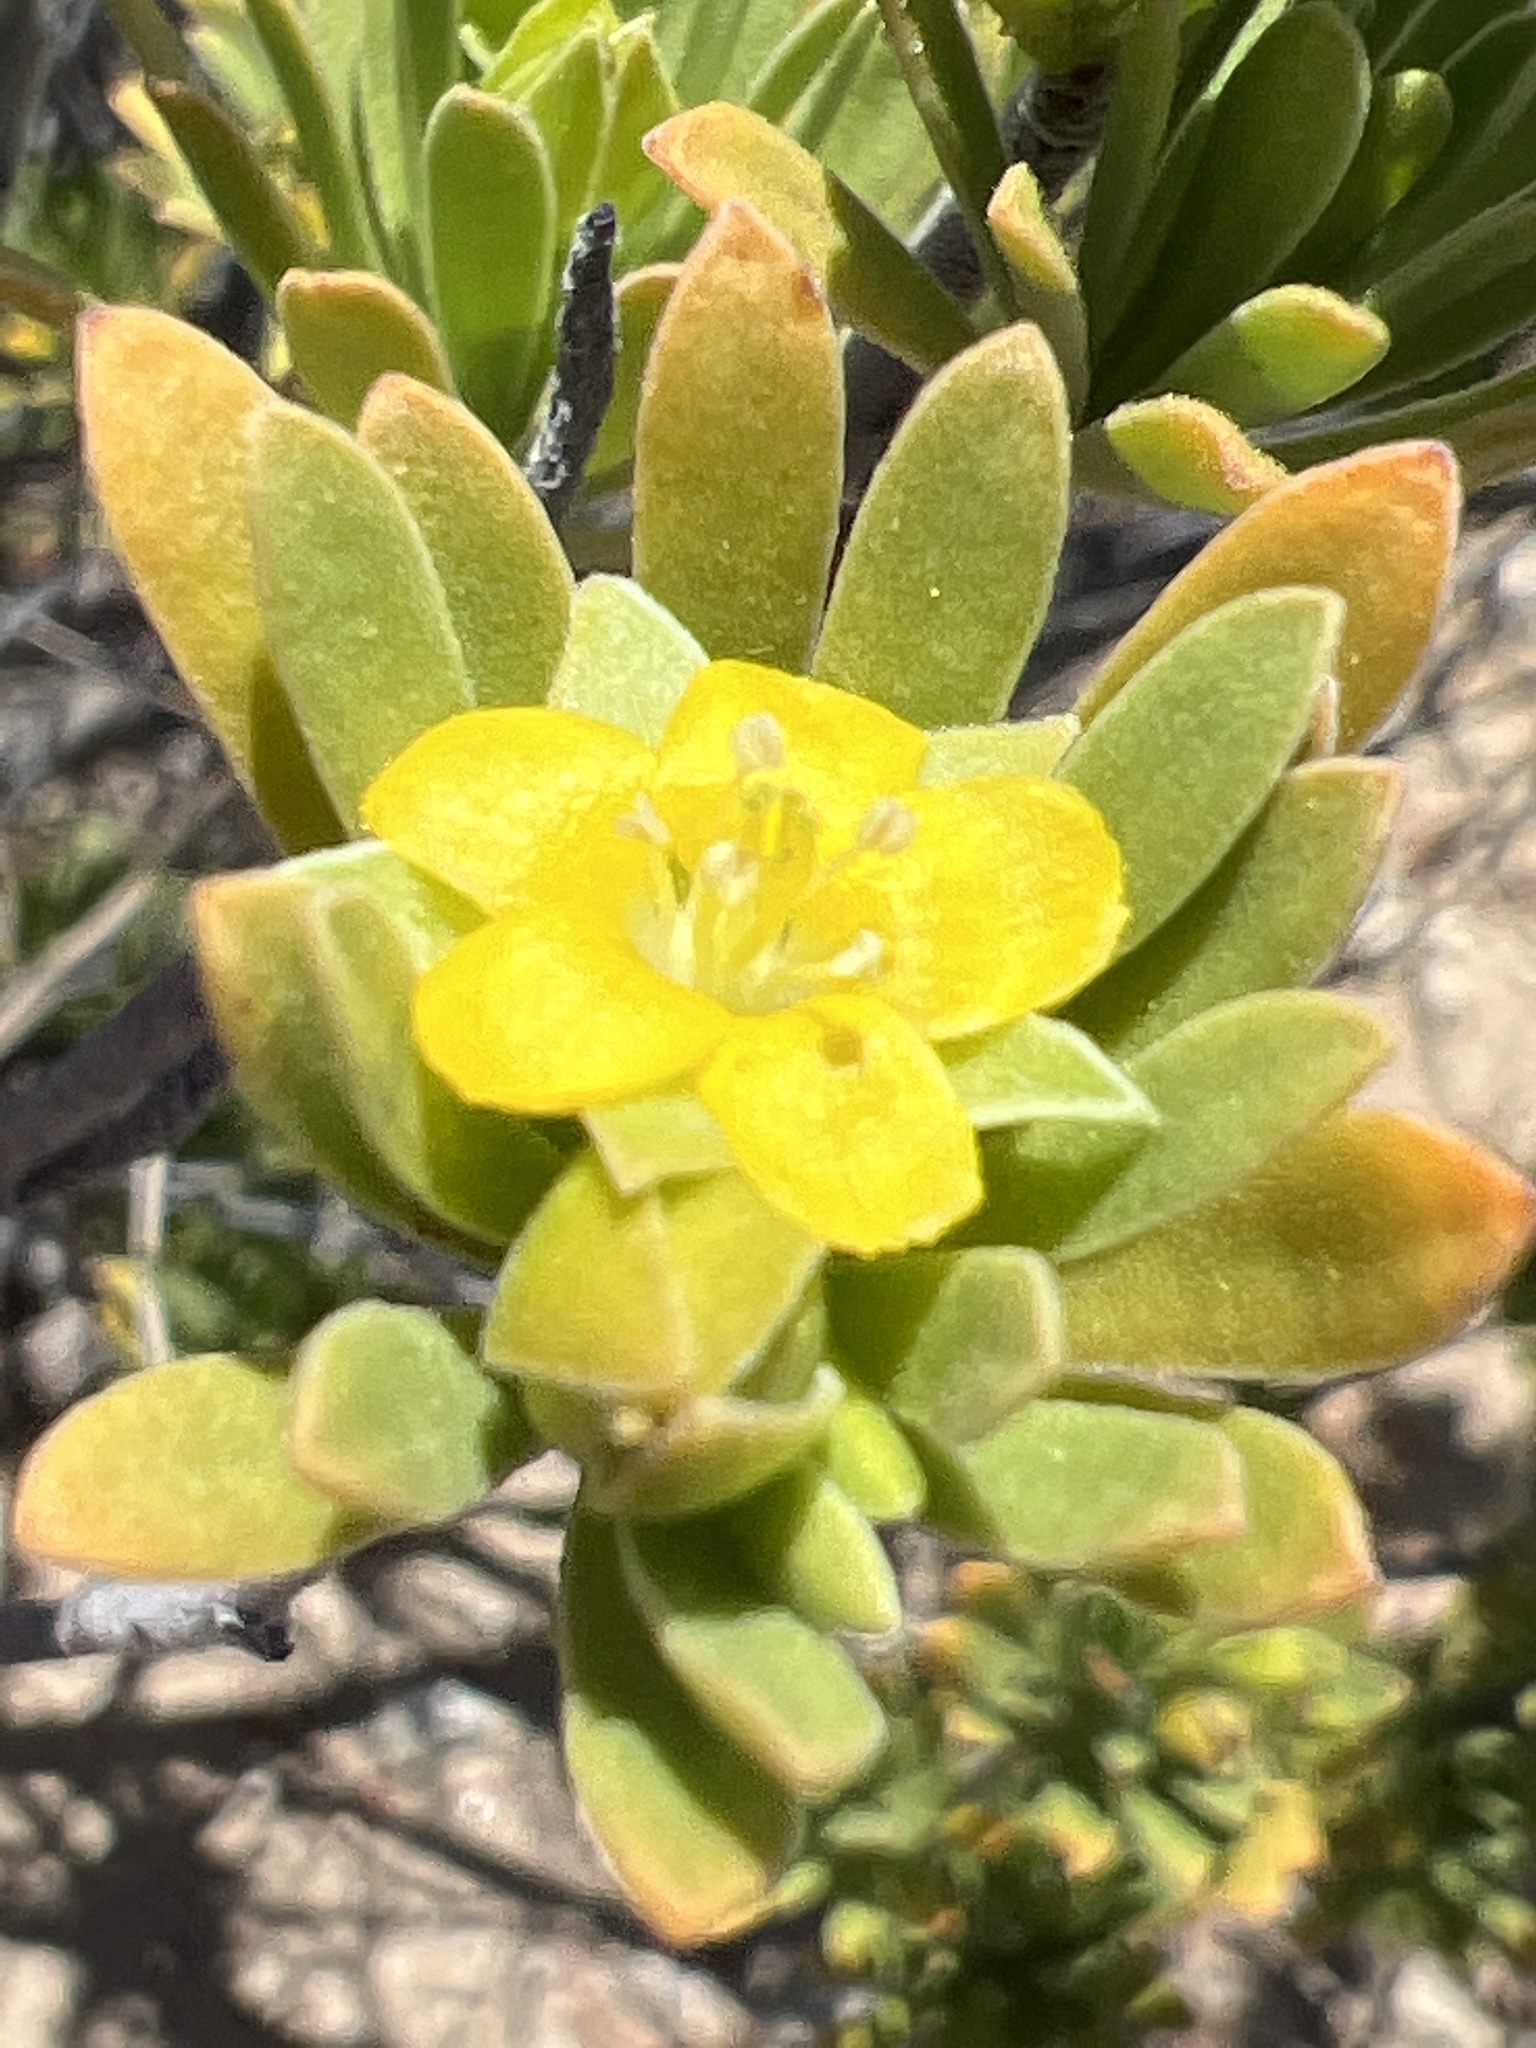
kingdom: Plantae
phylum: Tracheophyta
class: Magnoliopsida
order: Fabales
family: Surianaceae
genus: Suriana
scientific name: Suriana maritima
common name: Bay-cedar
